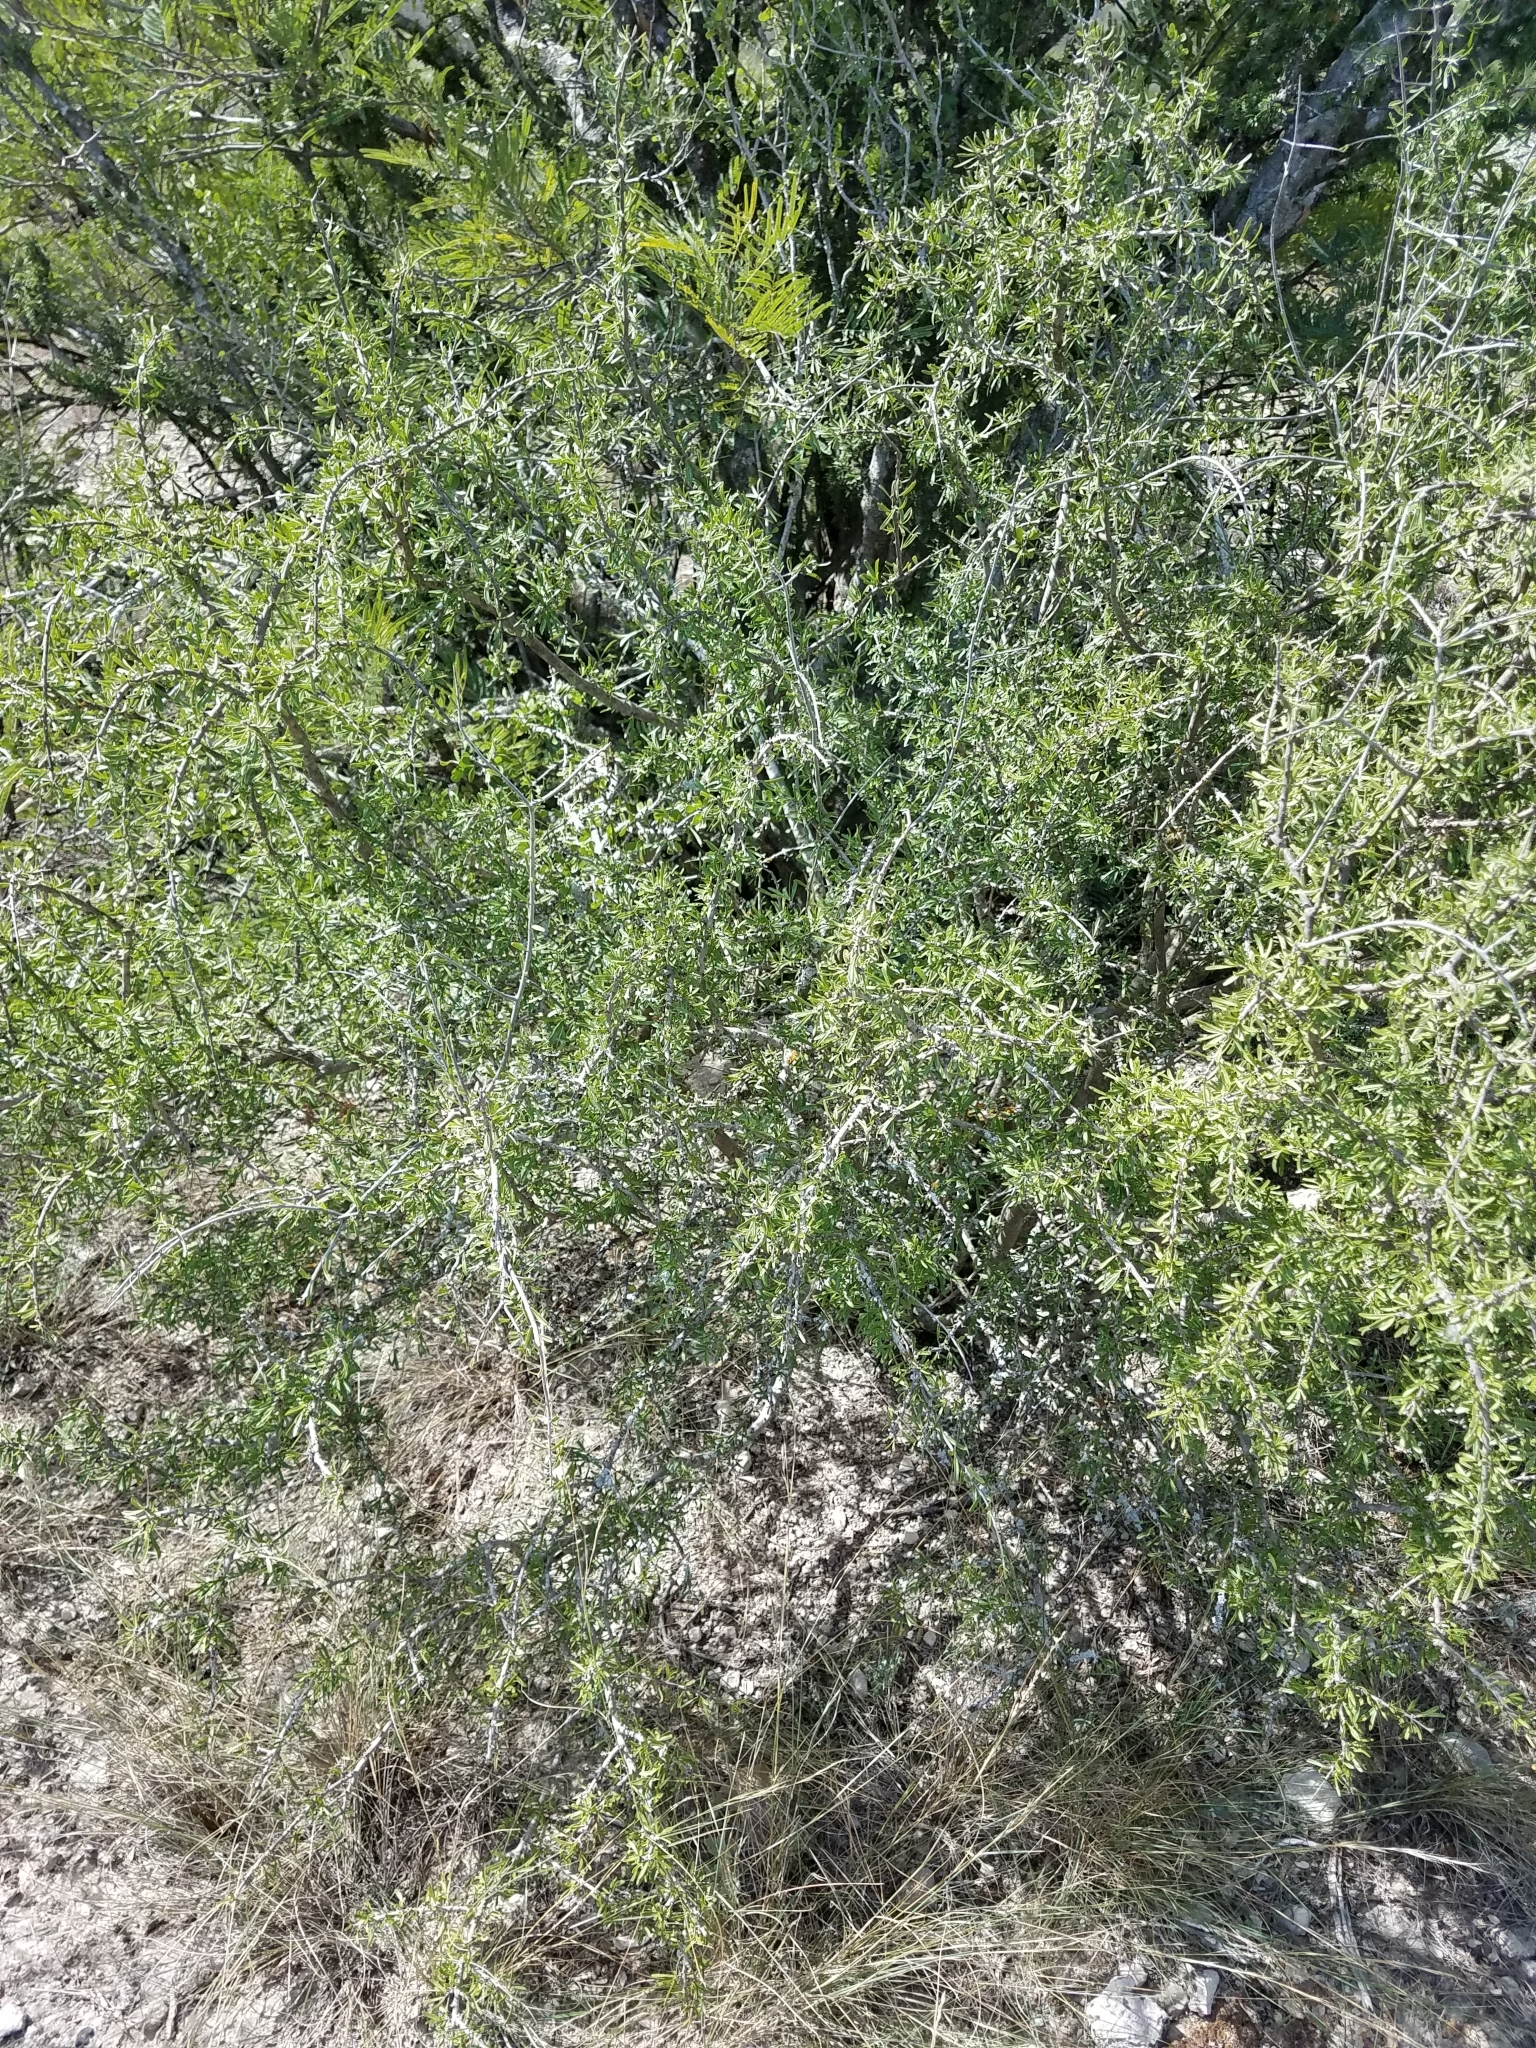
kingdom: Plantae
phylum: Tracheophyta
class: Magnoliopsida
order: Lamiales
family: Oleaceae
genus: Forestiera
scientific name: Forestiera angustifolia
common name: Elbowbush
